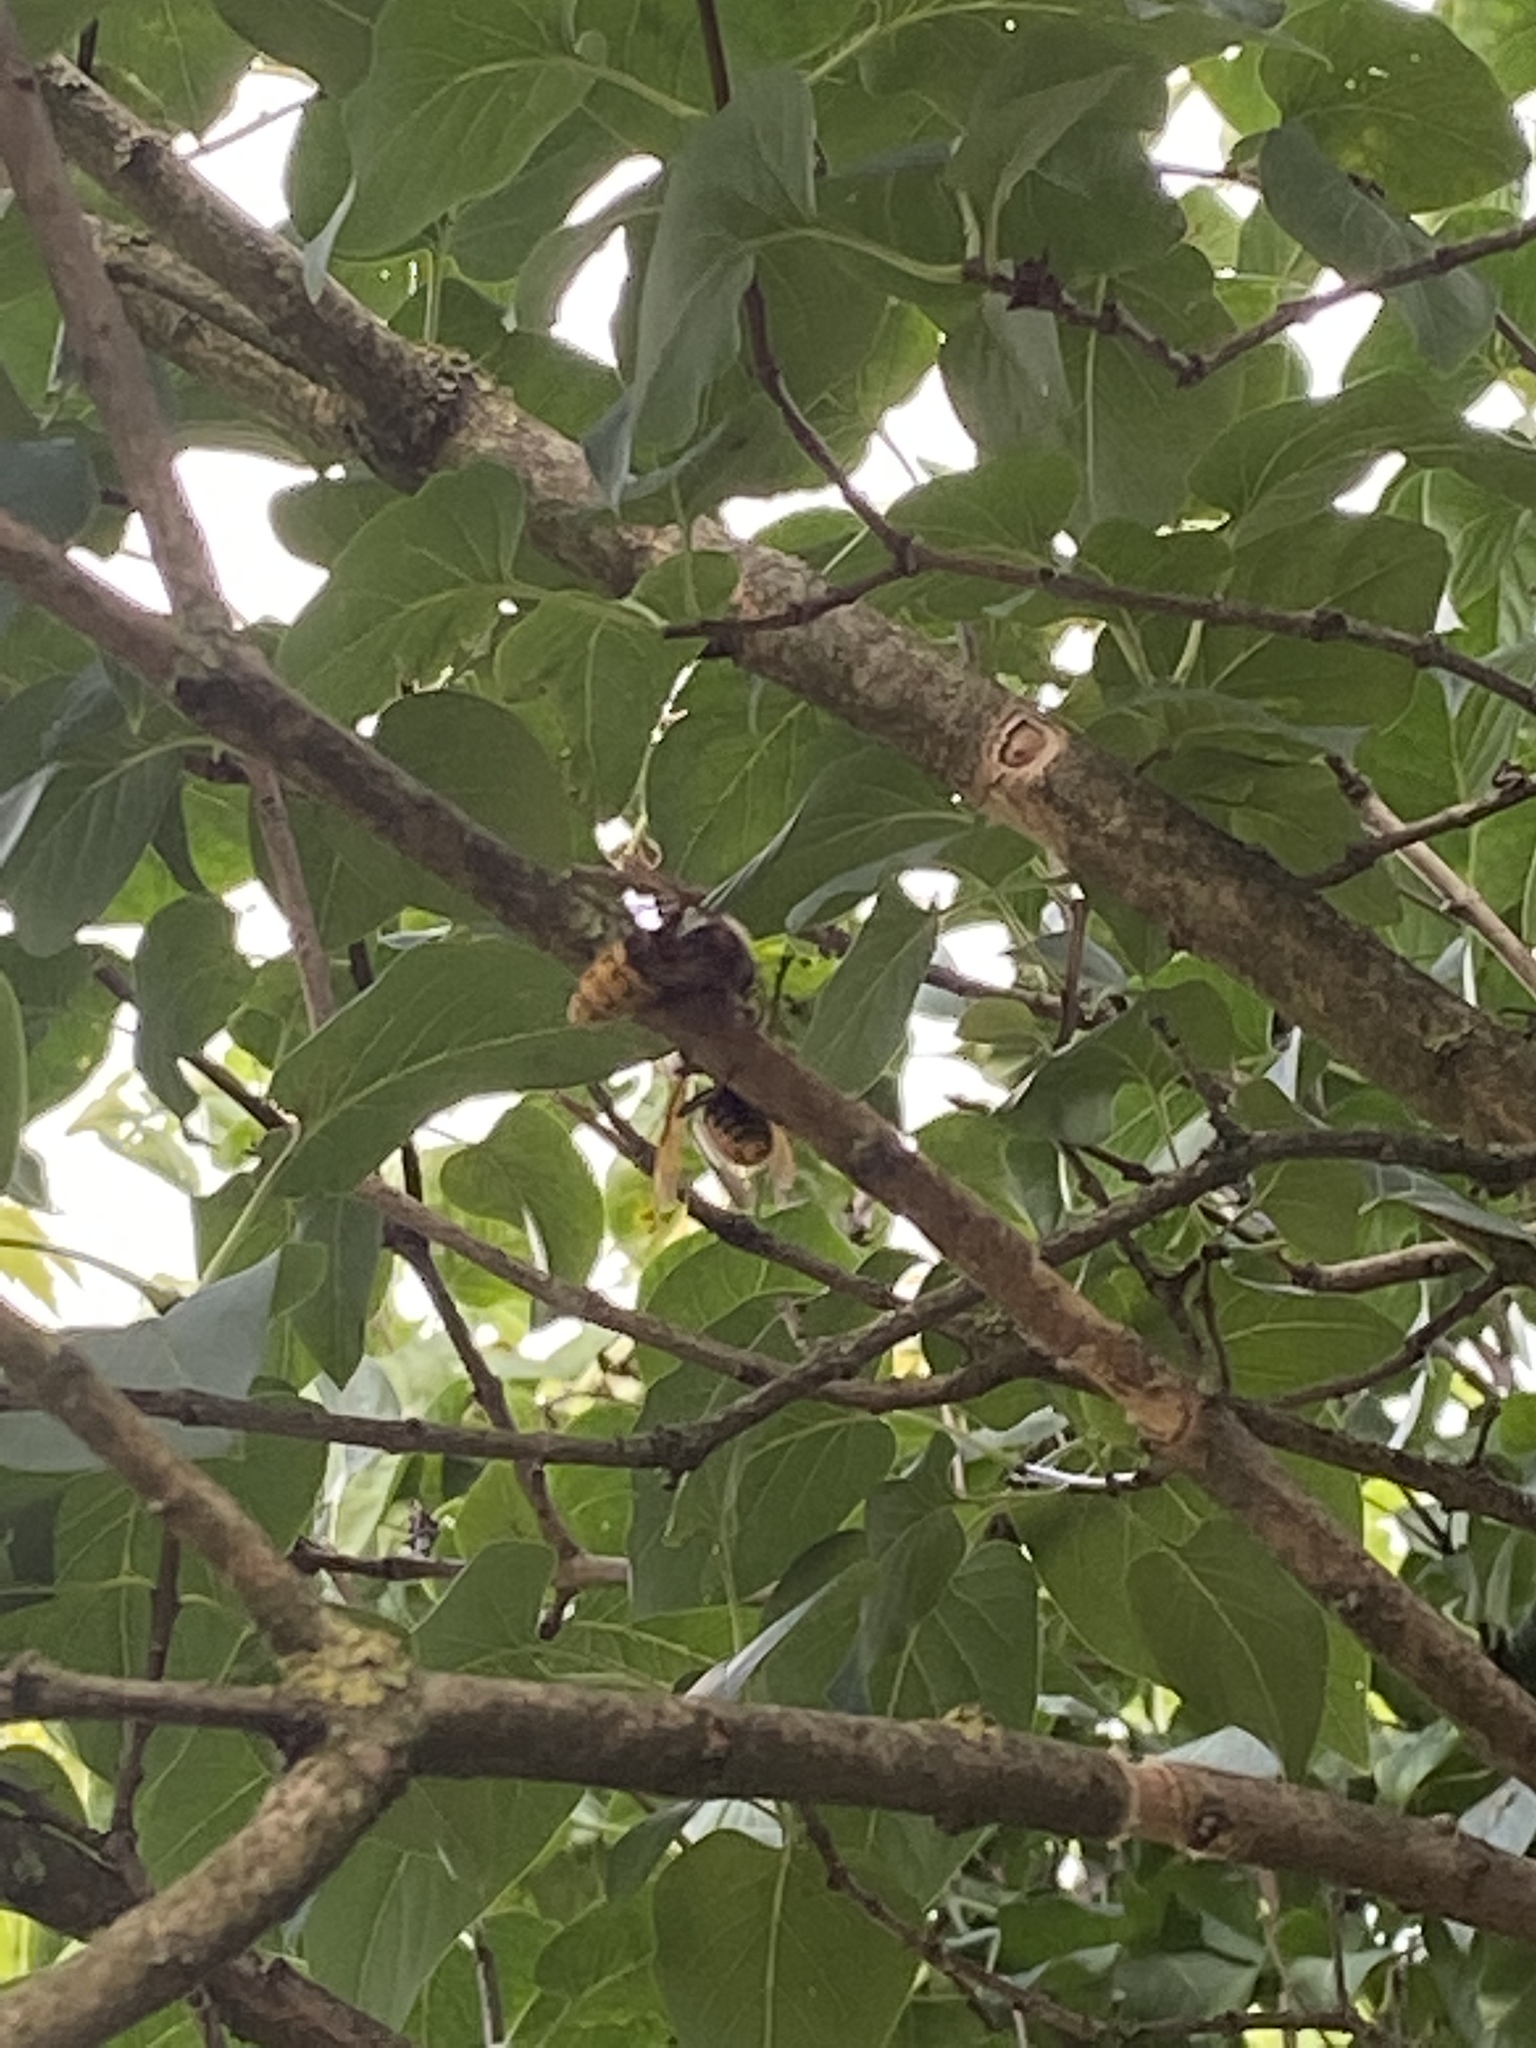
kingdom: Animalia
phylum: Arthropoda
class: Insecta
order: Hymenoptera
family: Vespidae
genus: Vespa
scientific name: Vespa crabro
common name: Hornet
